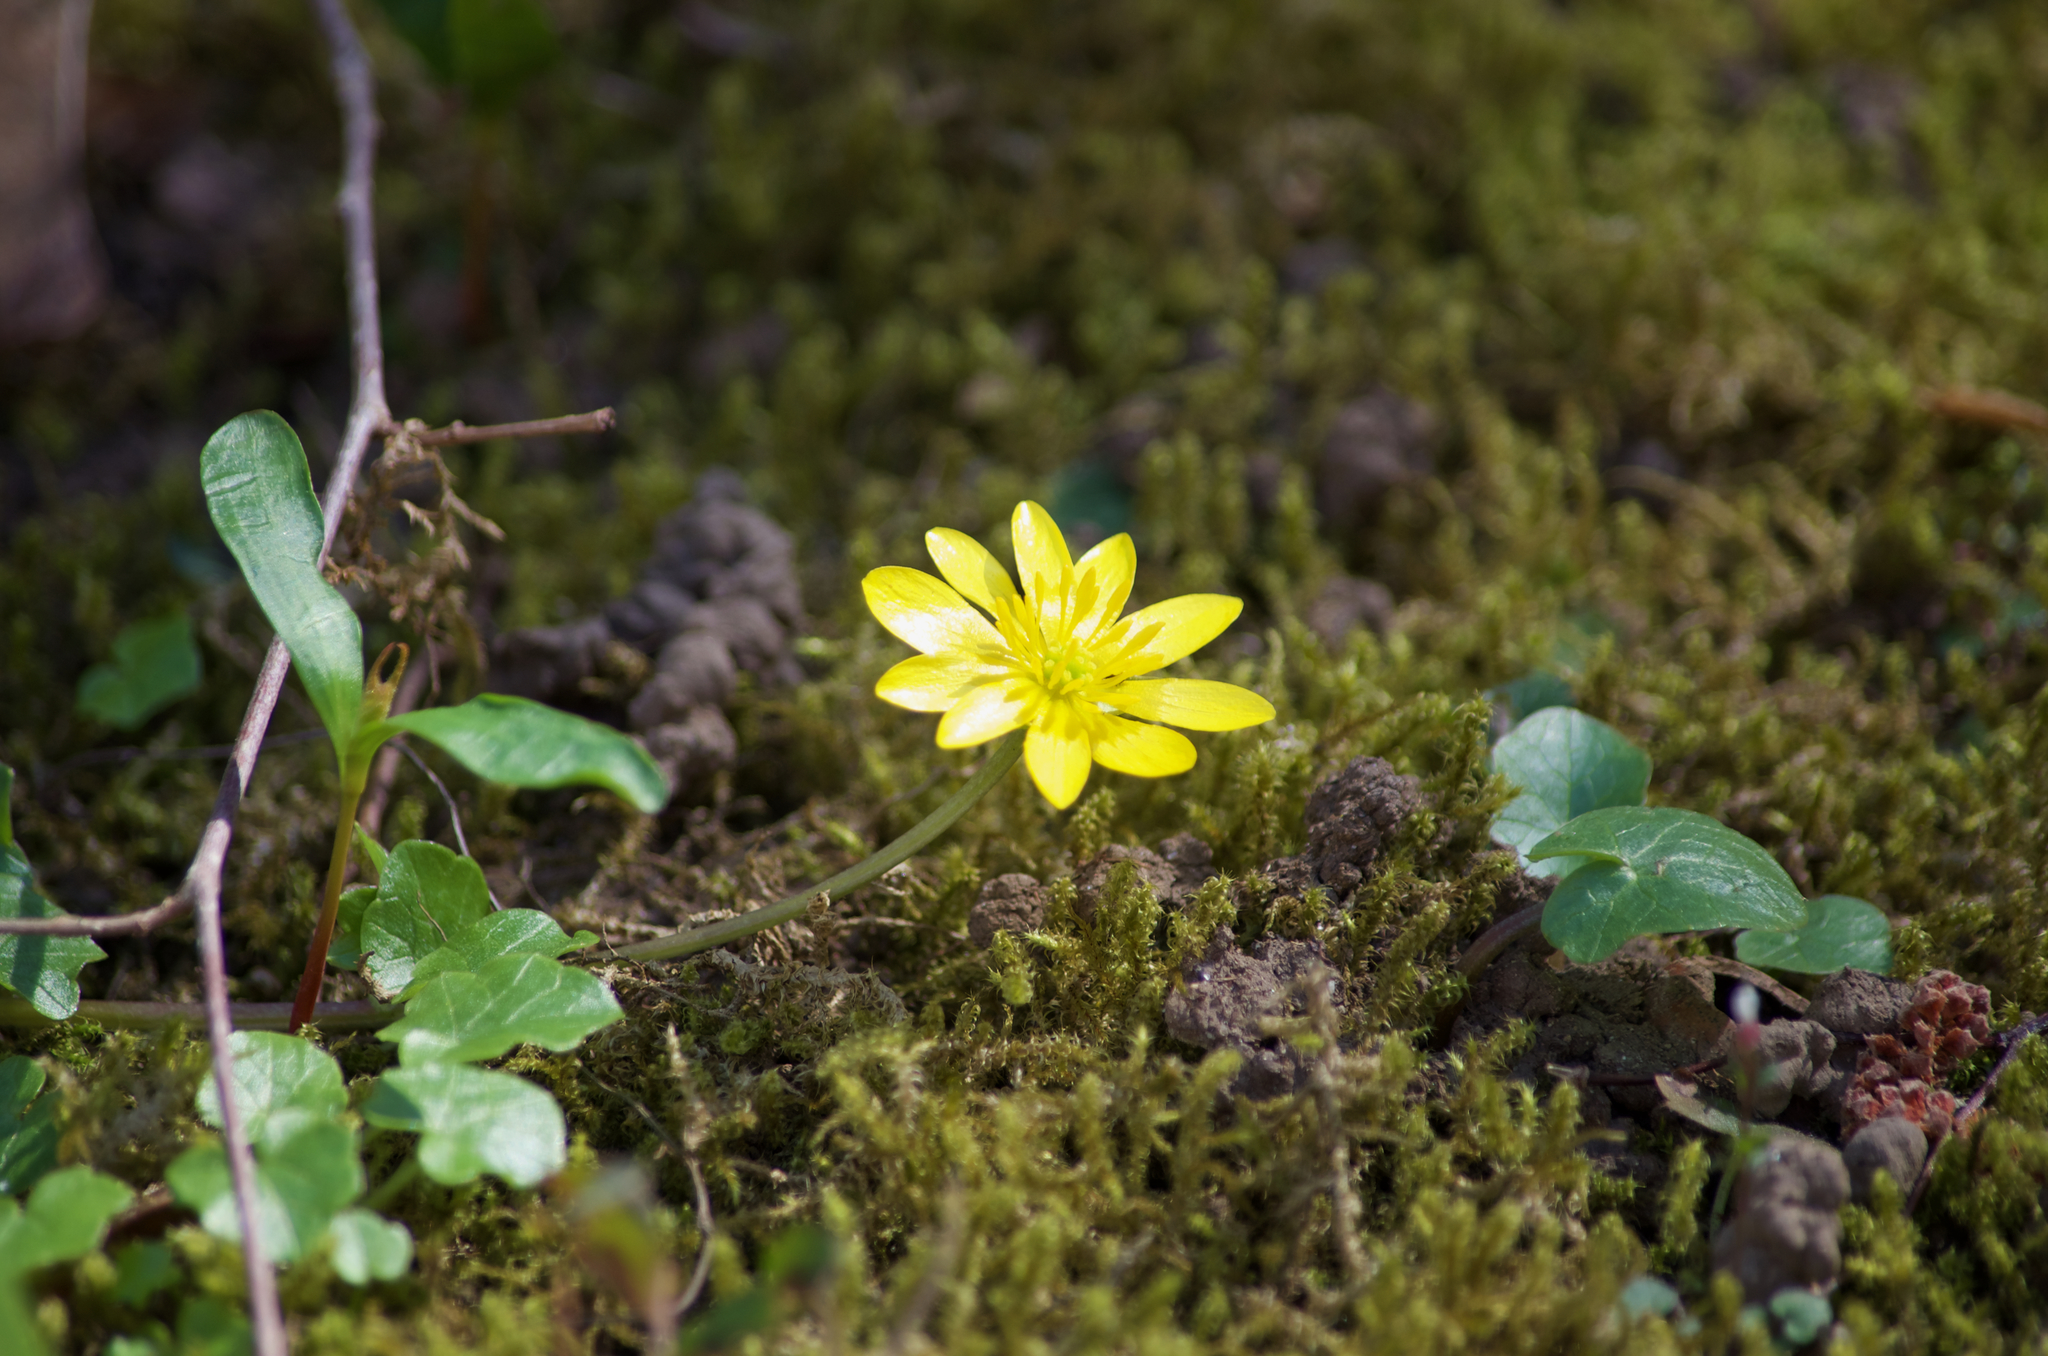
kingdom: Plantae
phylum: Tracheophyta
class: Magnoliopsida
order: Ranunculales
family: Ranunculaceae
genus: Ficaria
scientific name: Ficaria verna
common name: Lesser celandine
